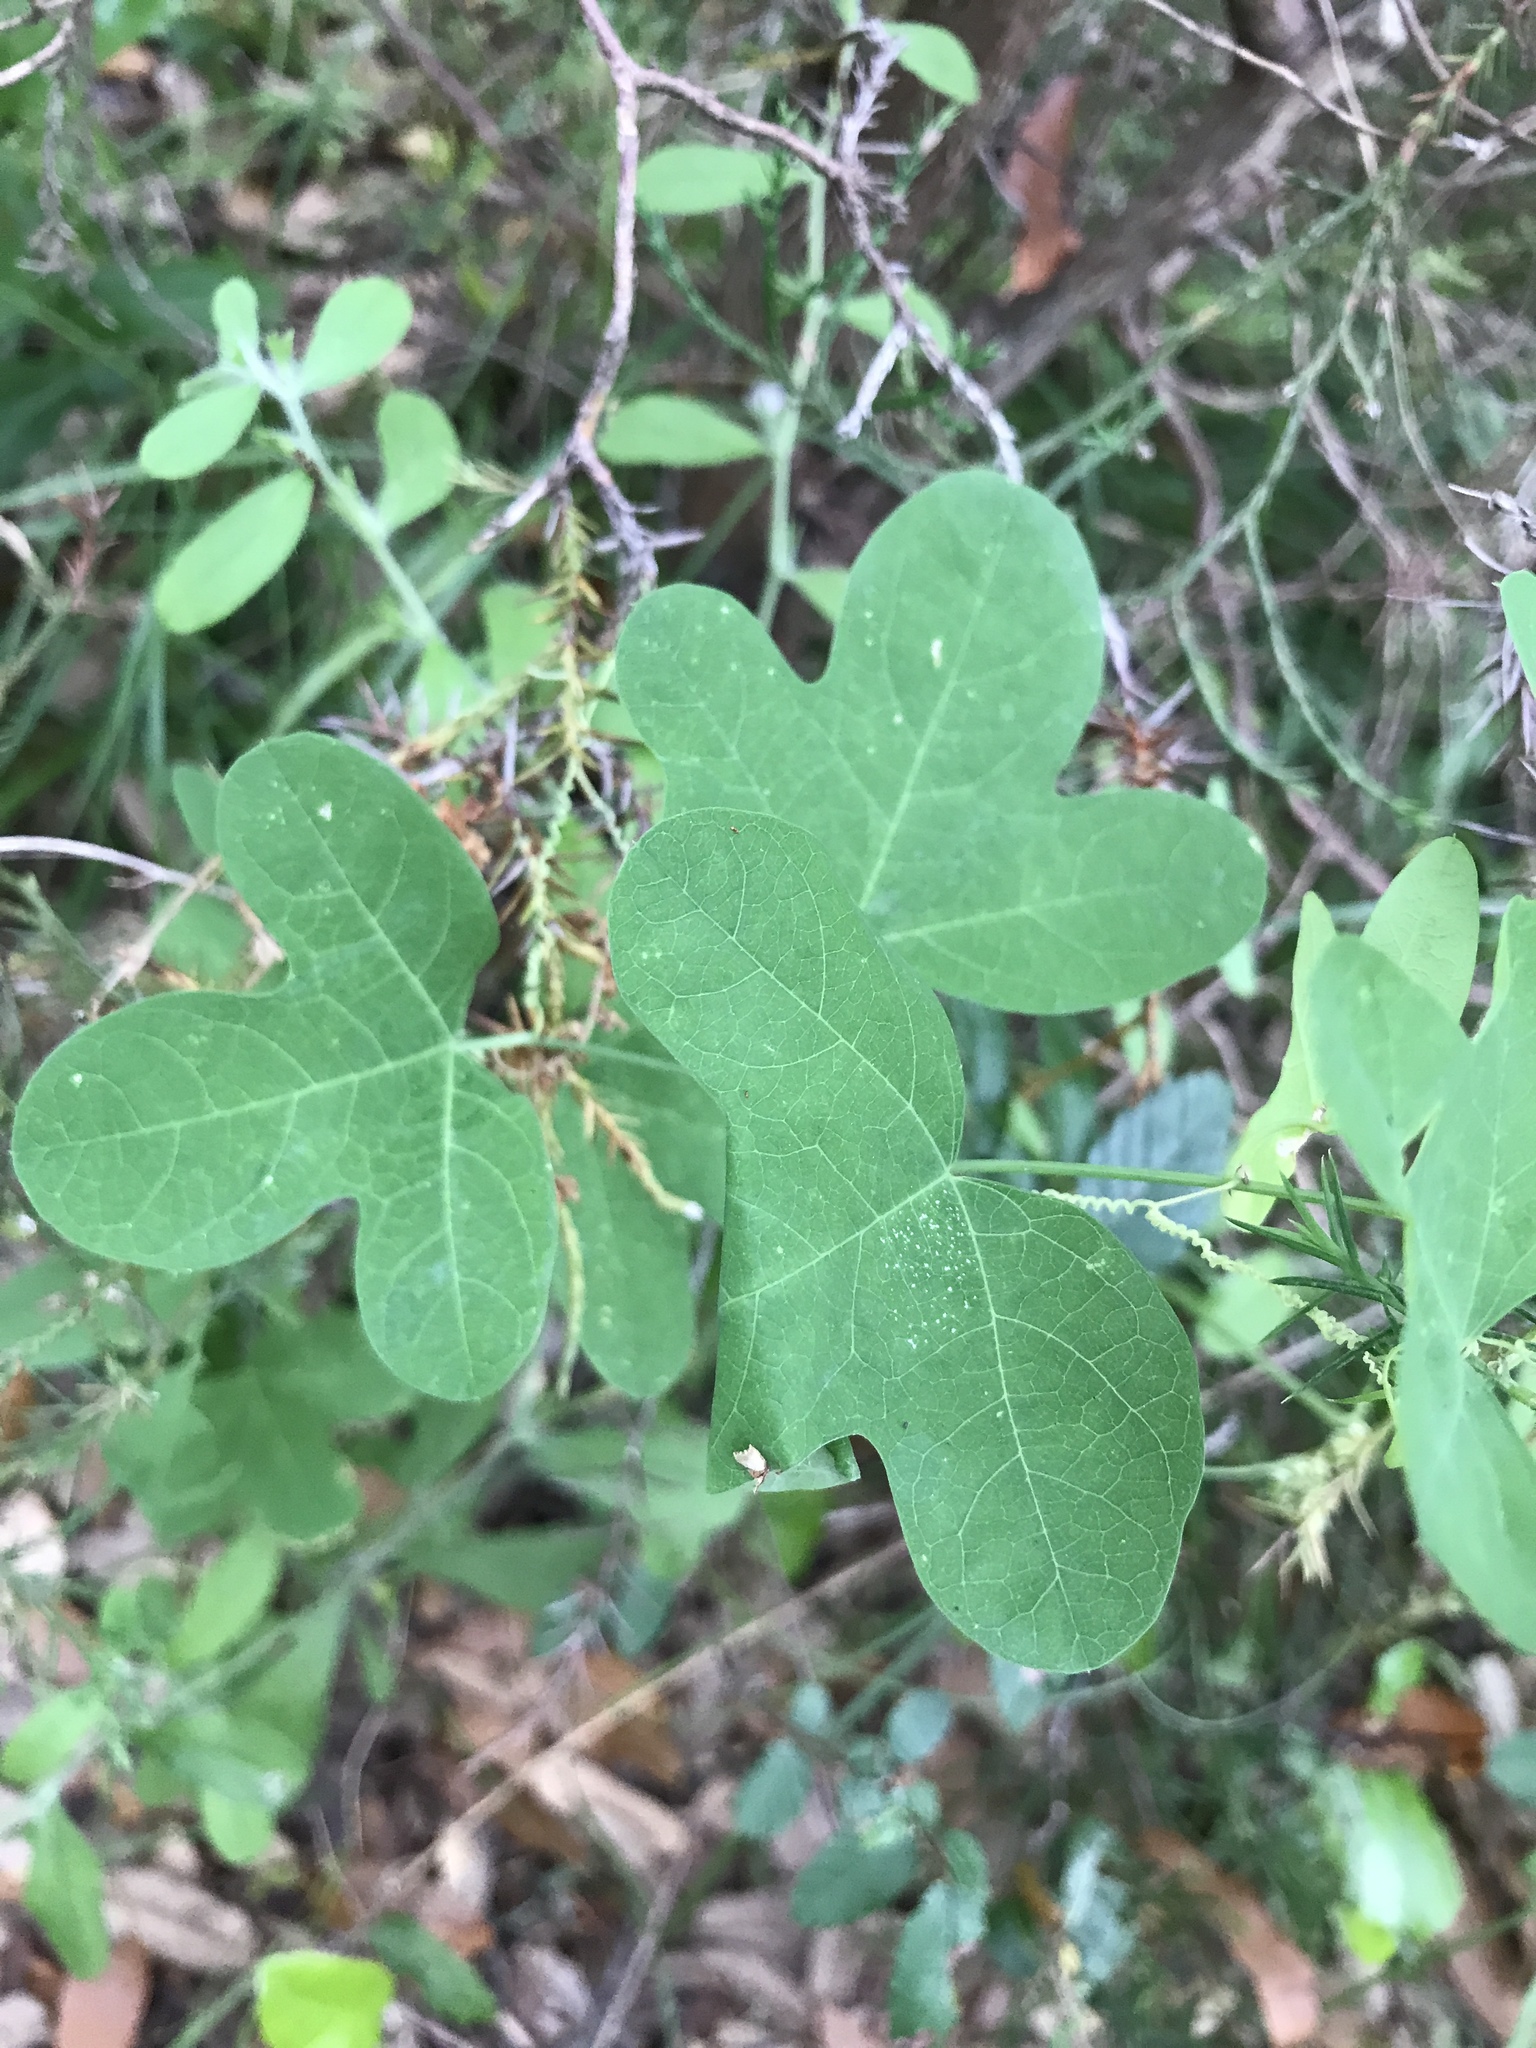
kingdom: Plantae
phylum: Tracheophyta
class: Magnoliopsida
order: Malpighiales
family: Passifloraceae
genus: Passiflora
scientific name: Passiflora affinis
